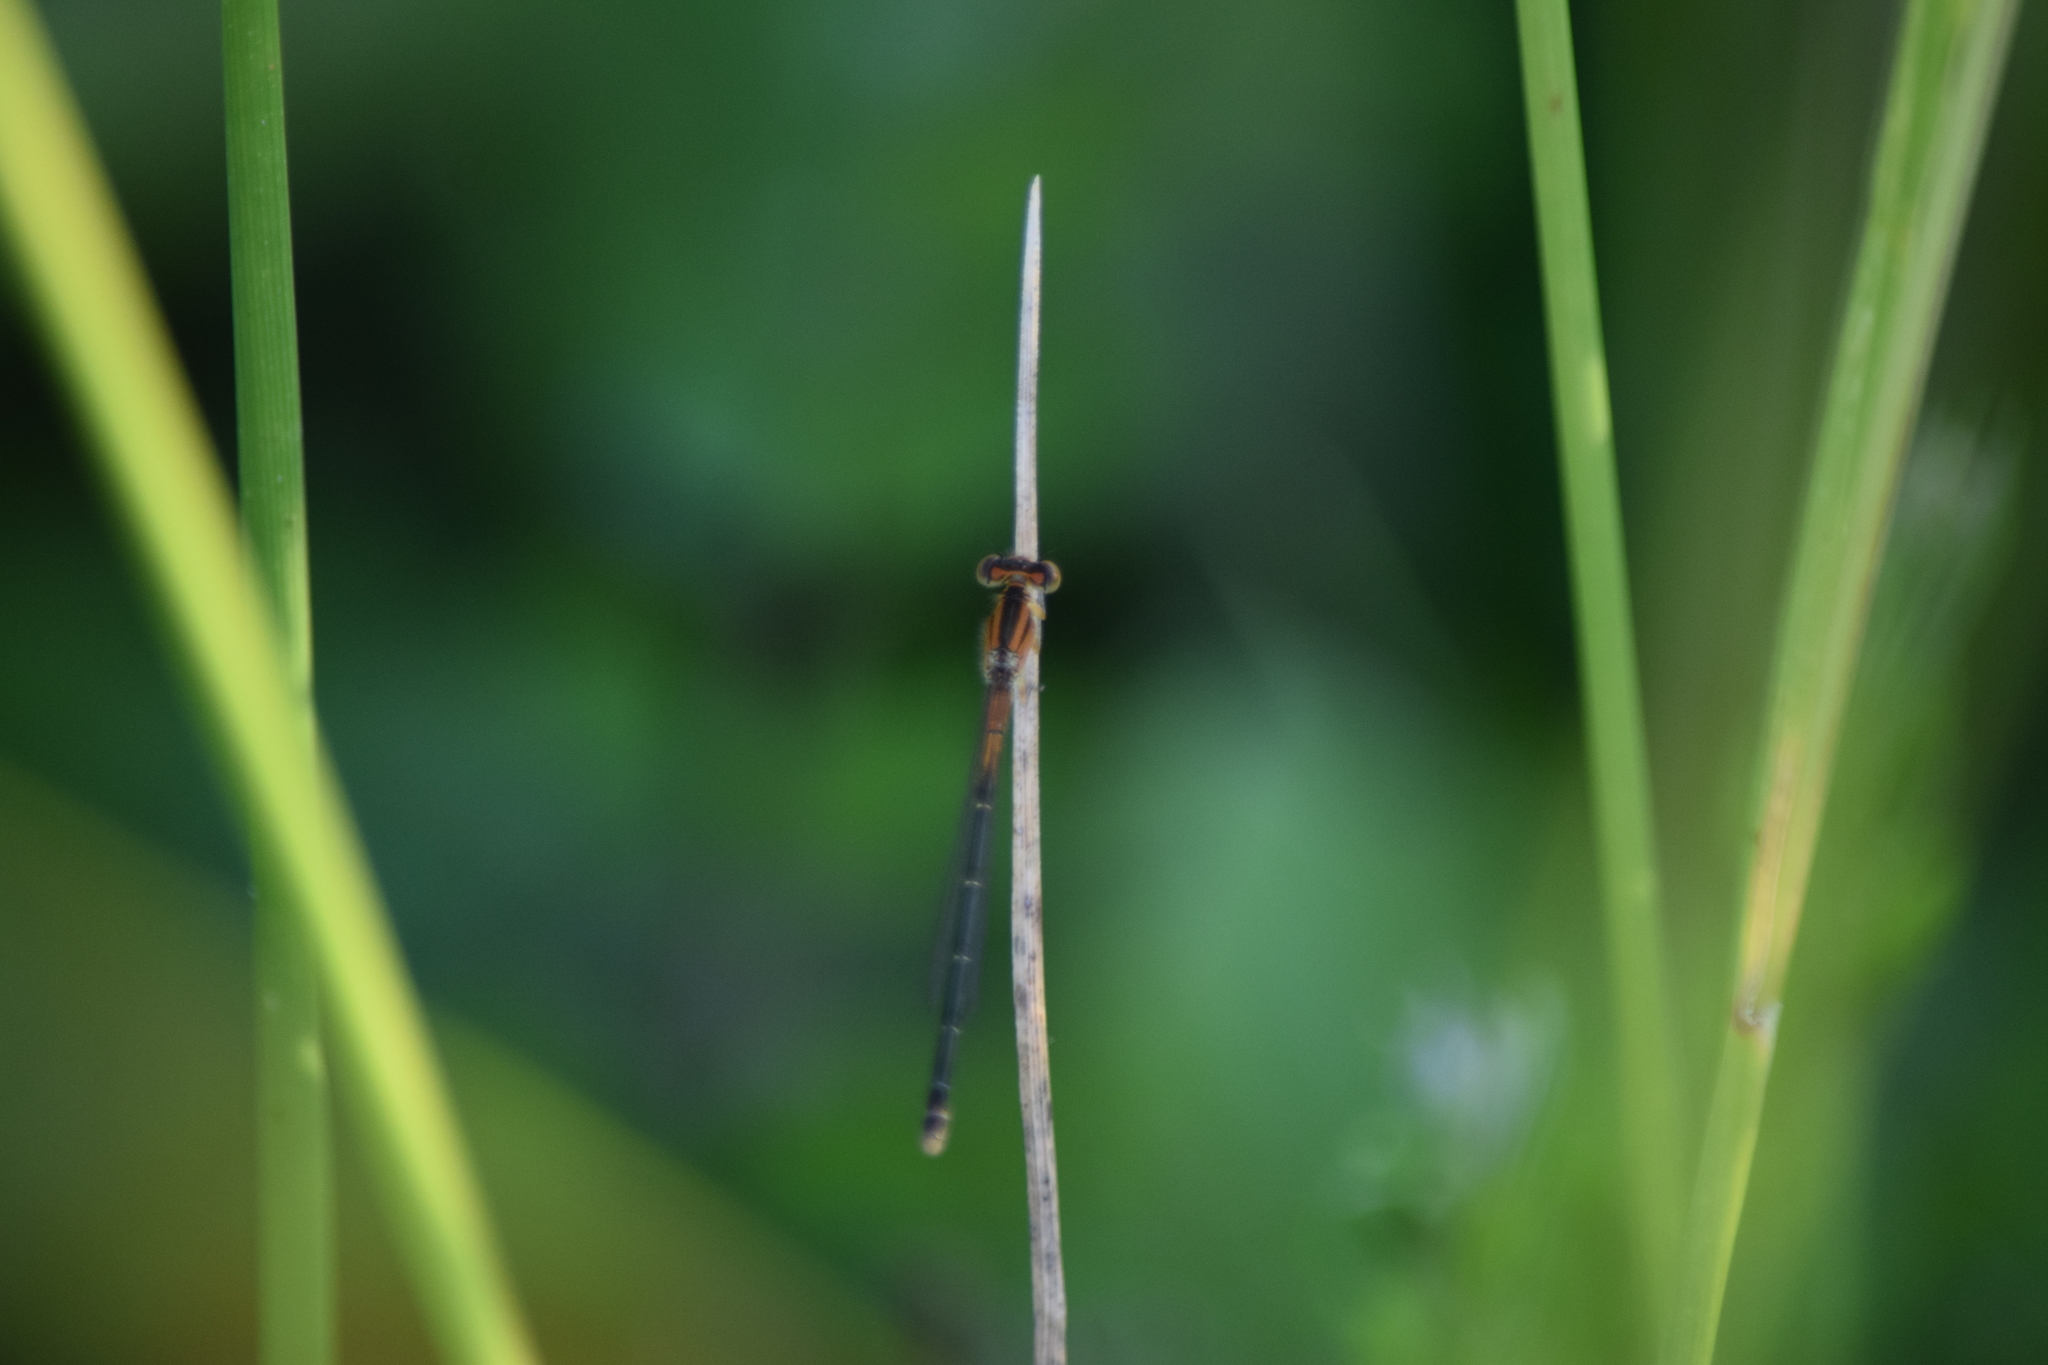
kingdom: Animalia
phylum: Arthropoda
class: Insecta
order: Odonata
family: Coenagrionidae
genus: Ischnura
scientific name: Ischnura verticalis
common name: Eastern forktail
